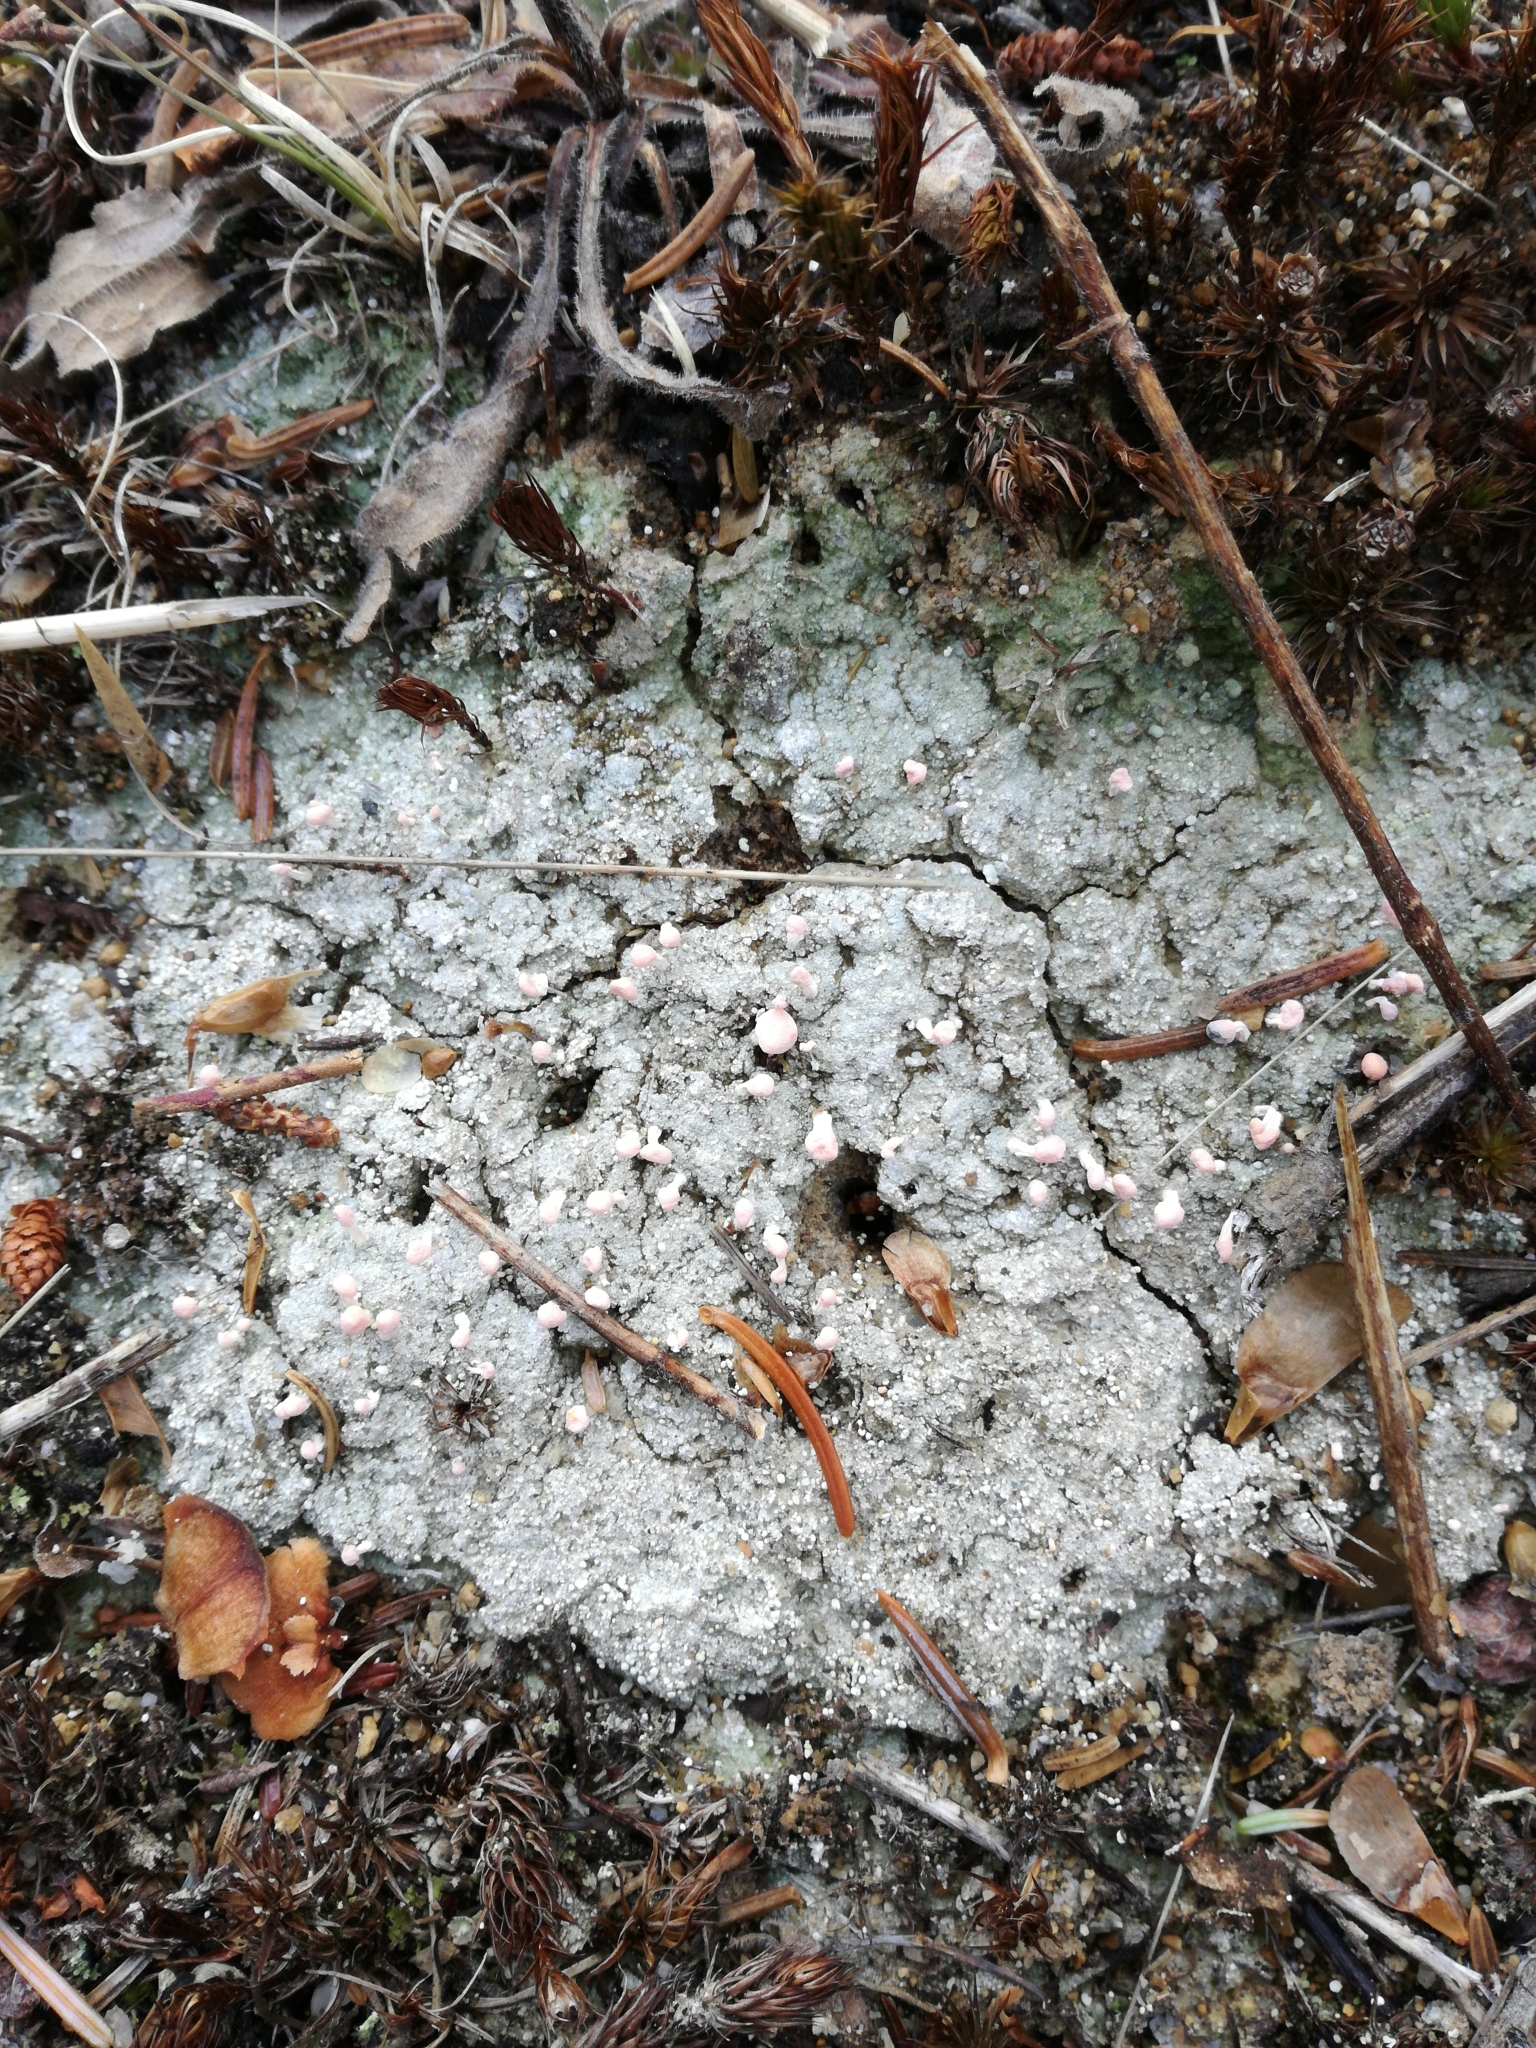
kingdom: Fungi
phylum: Ascomycota
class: Lecanoromycetes
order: Pertusariales
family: Icmadophilaceae
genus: Dibaeis
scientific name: Dibaeis baeomyces
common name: Pink earth lichen
